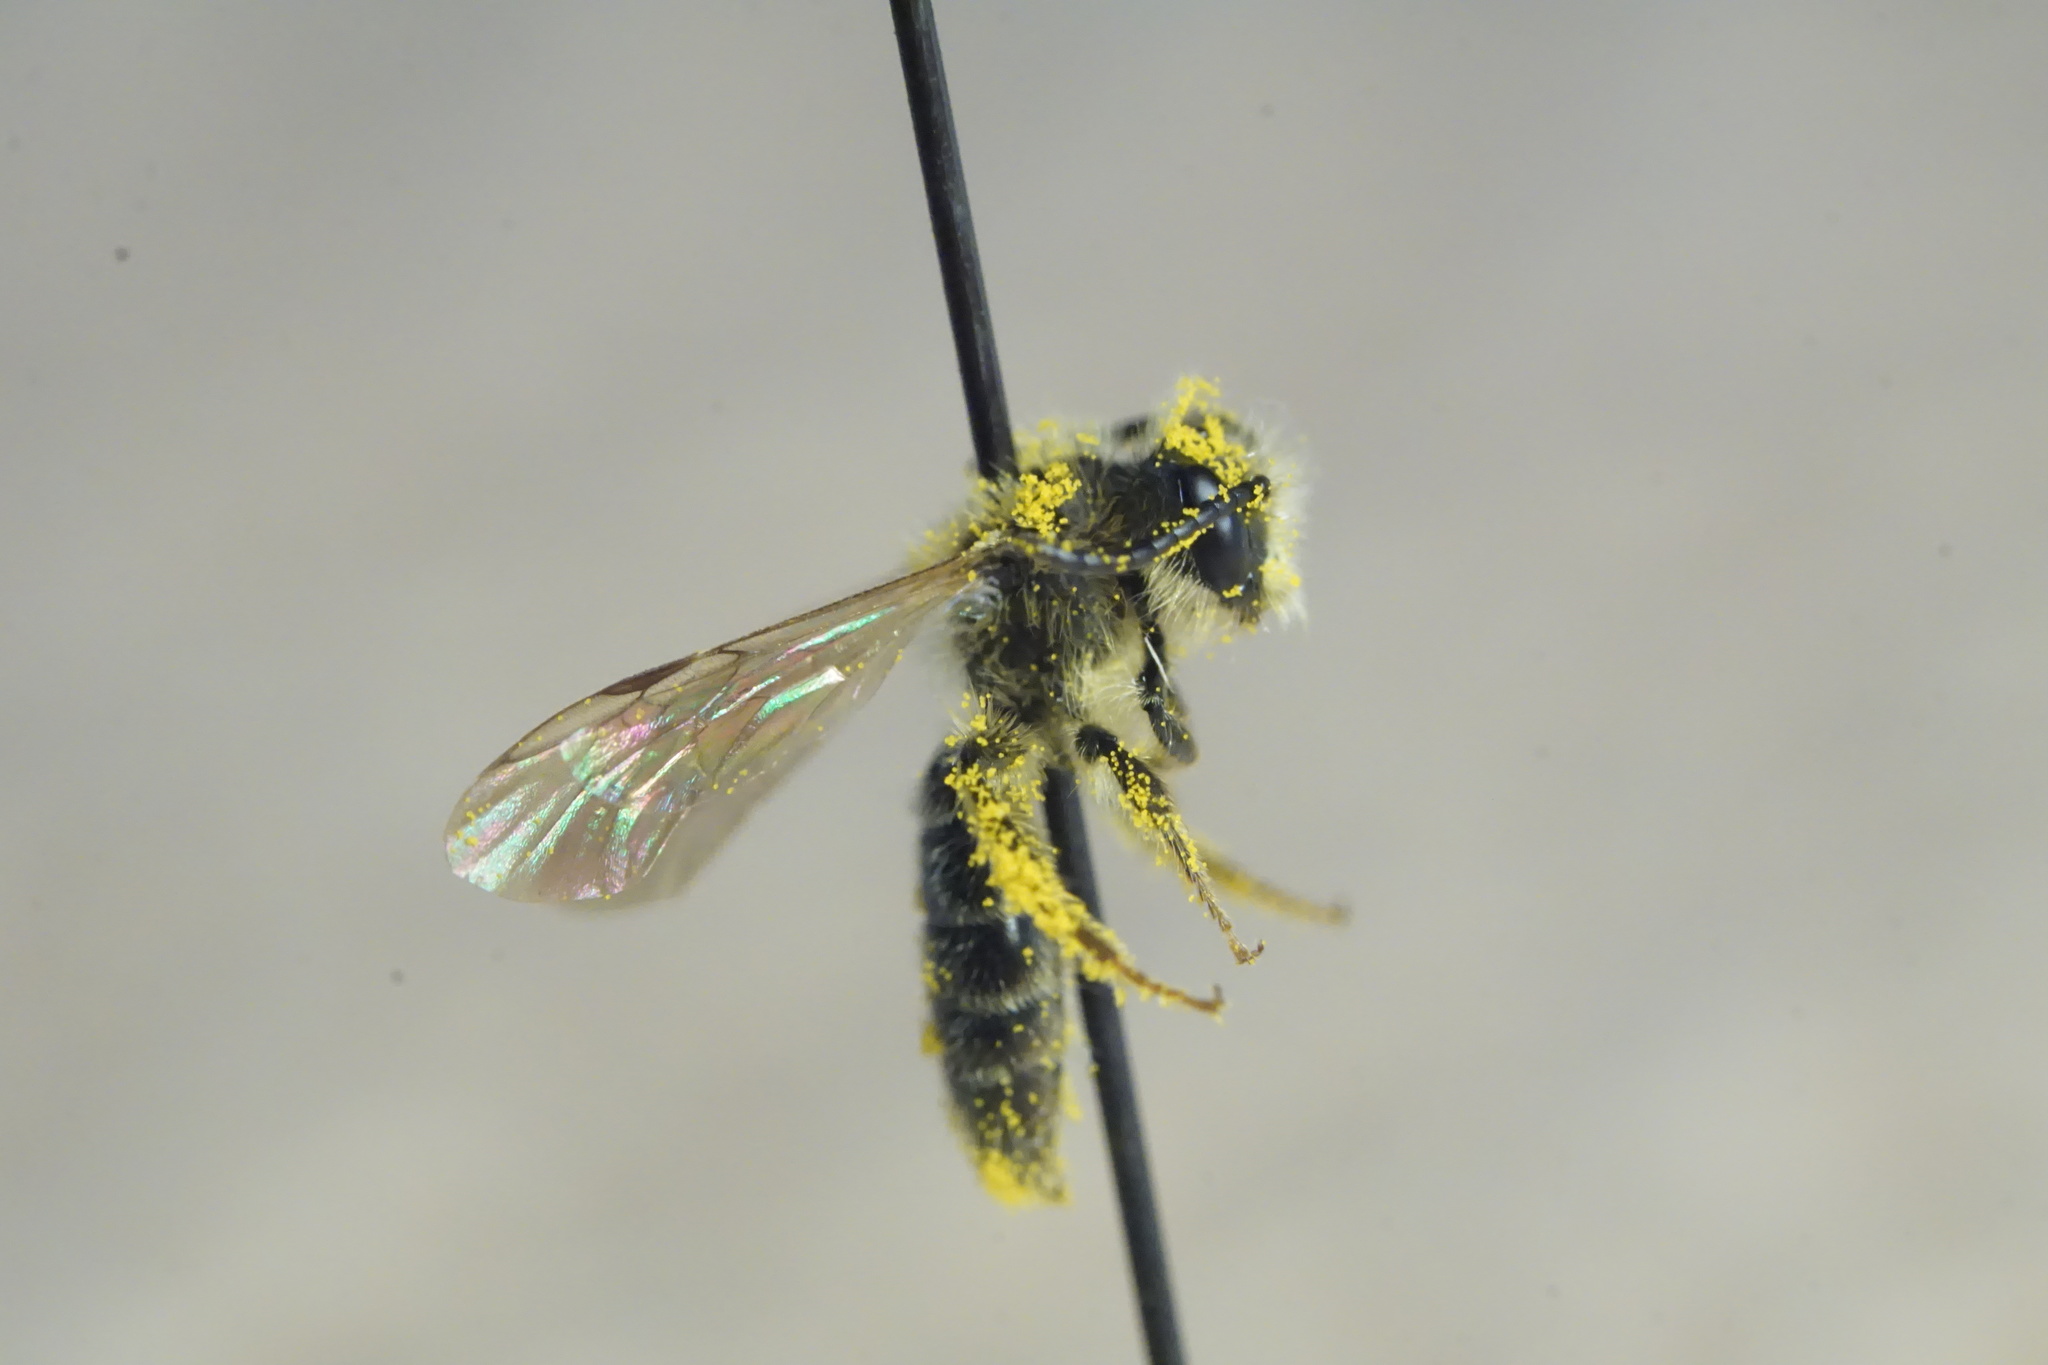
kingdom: Animalia
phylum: Arthropoda
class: Insecta
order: Hymenoptera
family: Andrenidae
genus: Andrena
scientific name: Andrena miserabilis
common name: Miserable mining bee
